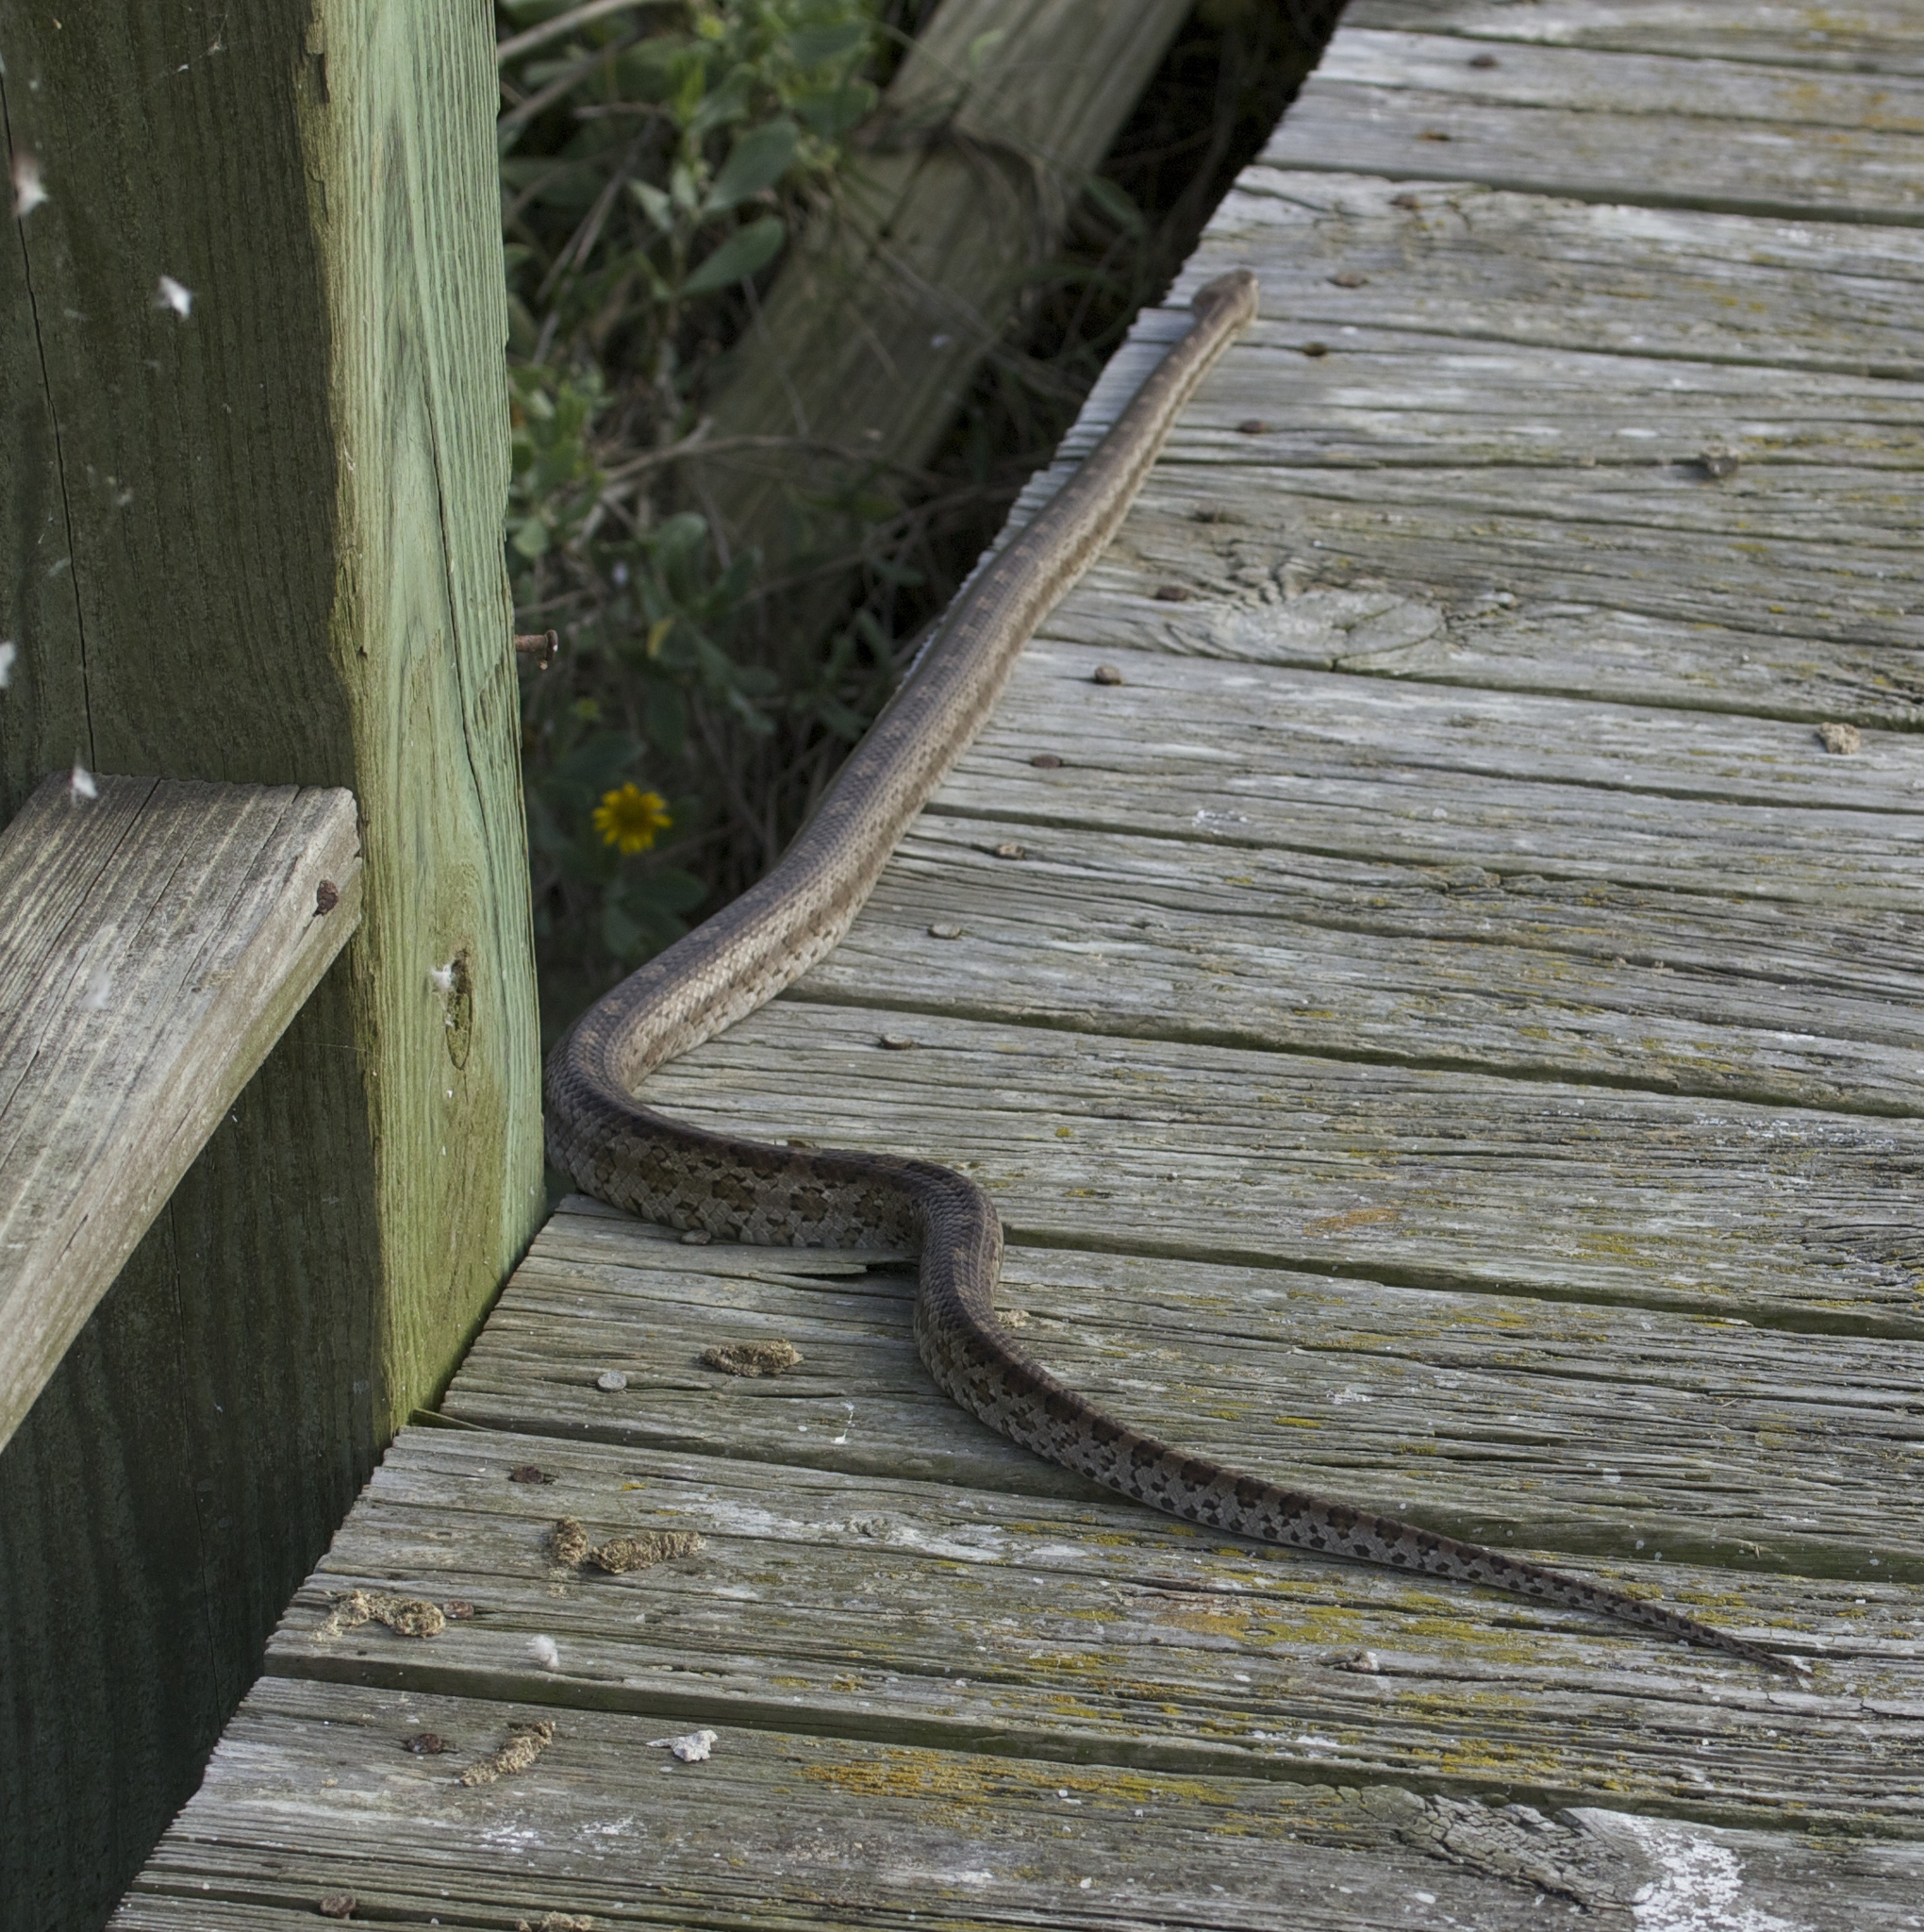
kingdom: Animalia
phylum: Chordata
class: Squamata
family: Colubridae
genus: Pantherophis
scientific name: Pantherophis emoryi
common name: Great plains rat snake
